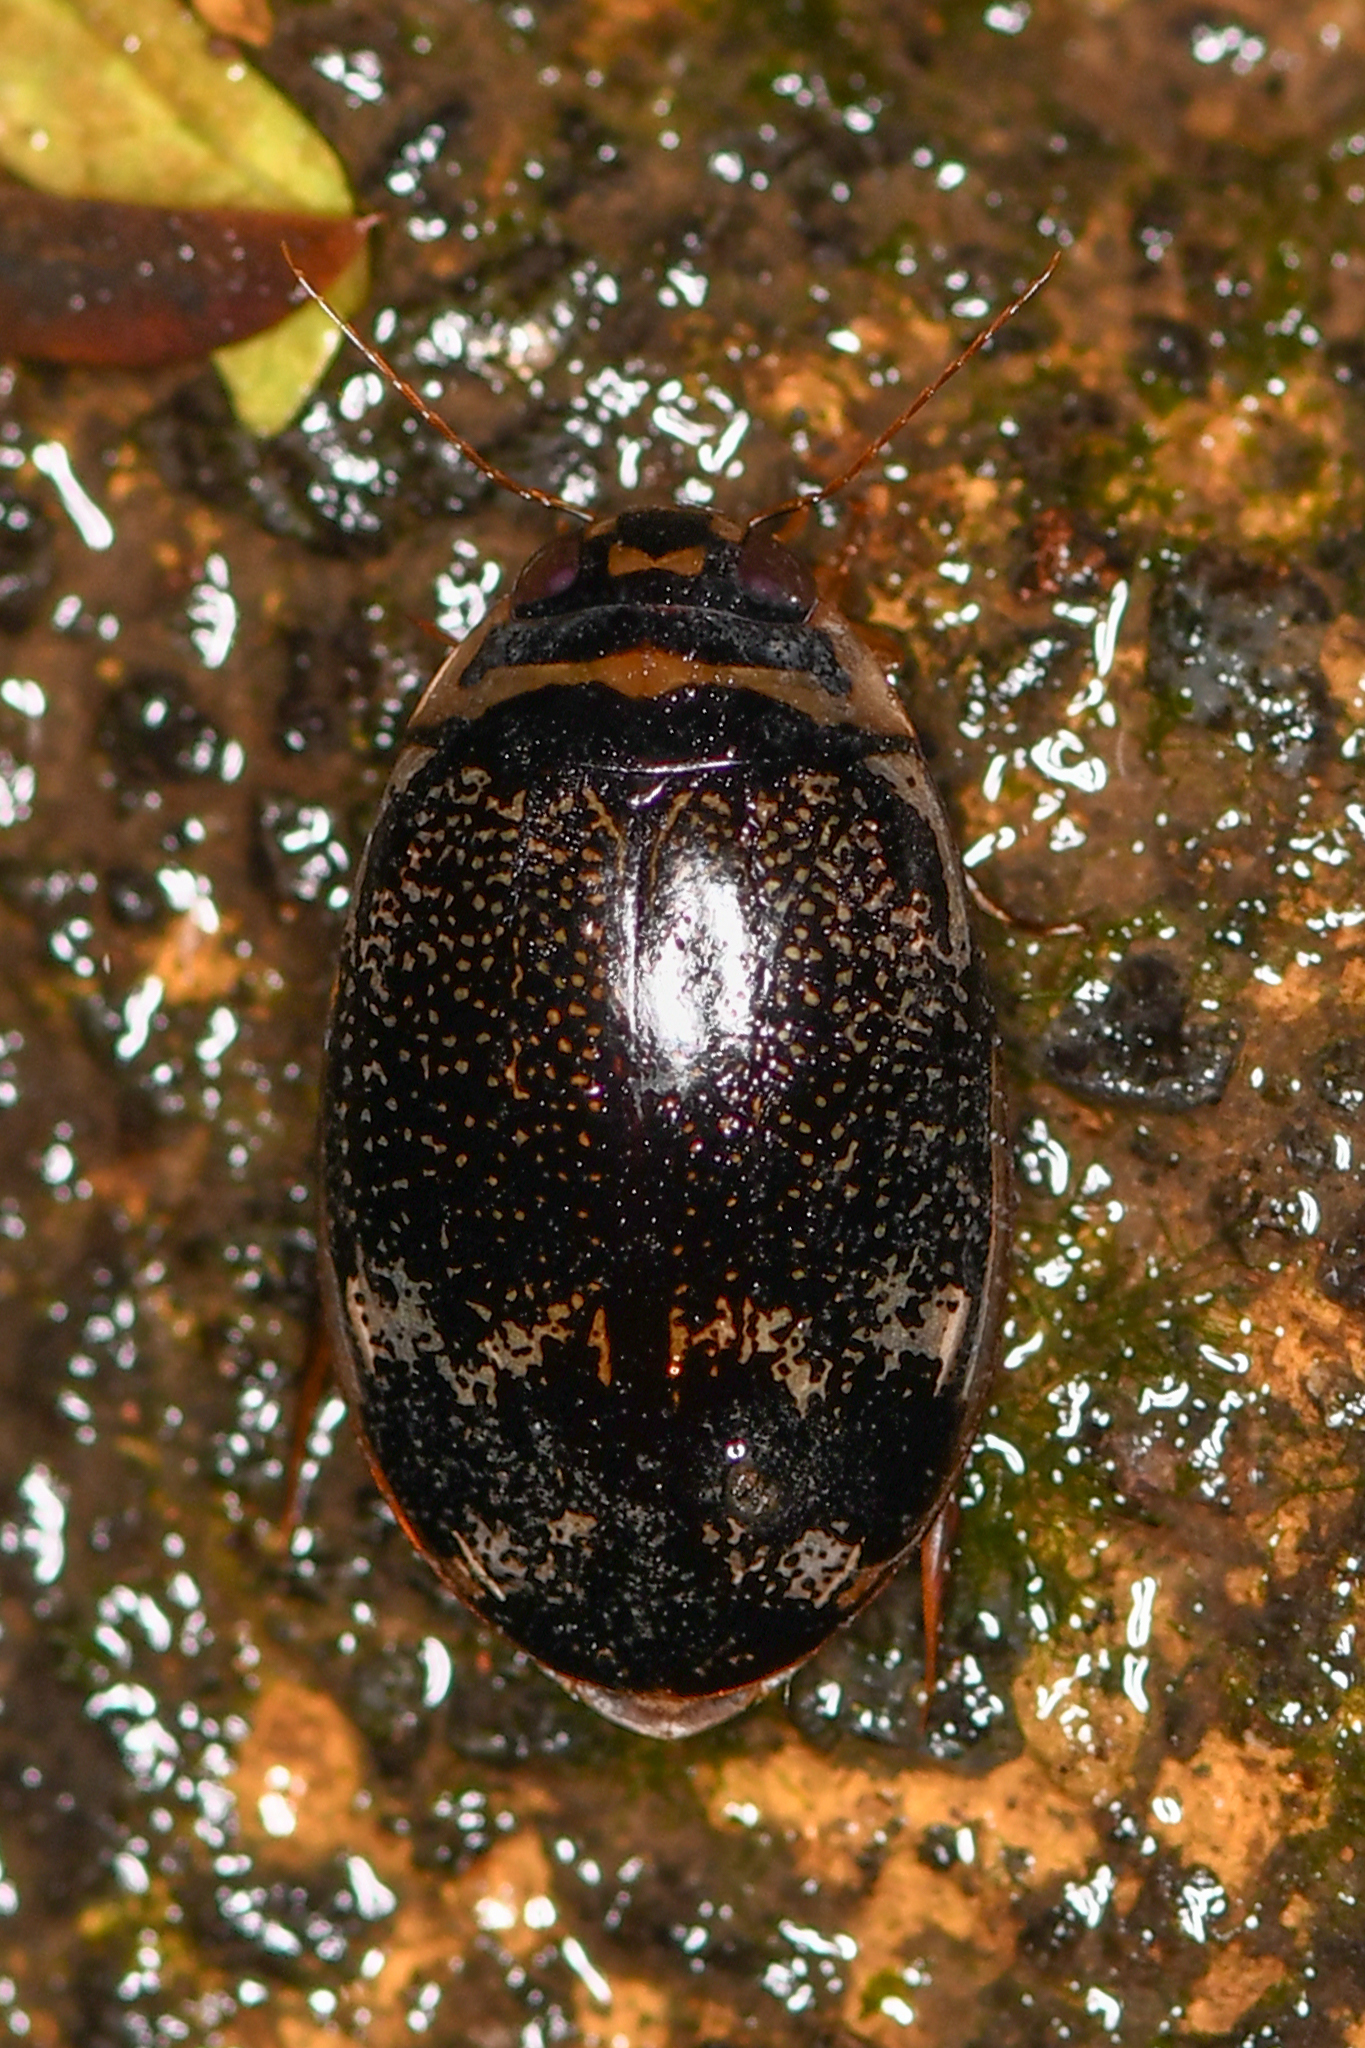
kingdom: Animalia
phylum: Arthropoda
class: Insecta
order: Coleoptera
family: Dytiscidae
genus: Thermonectus
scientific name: Thermonectus
